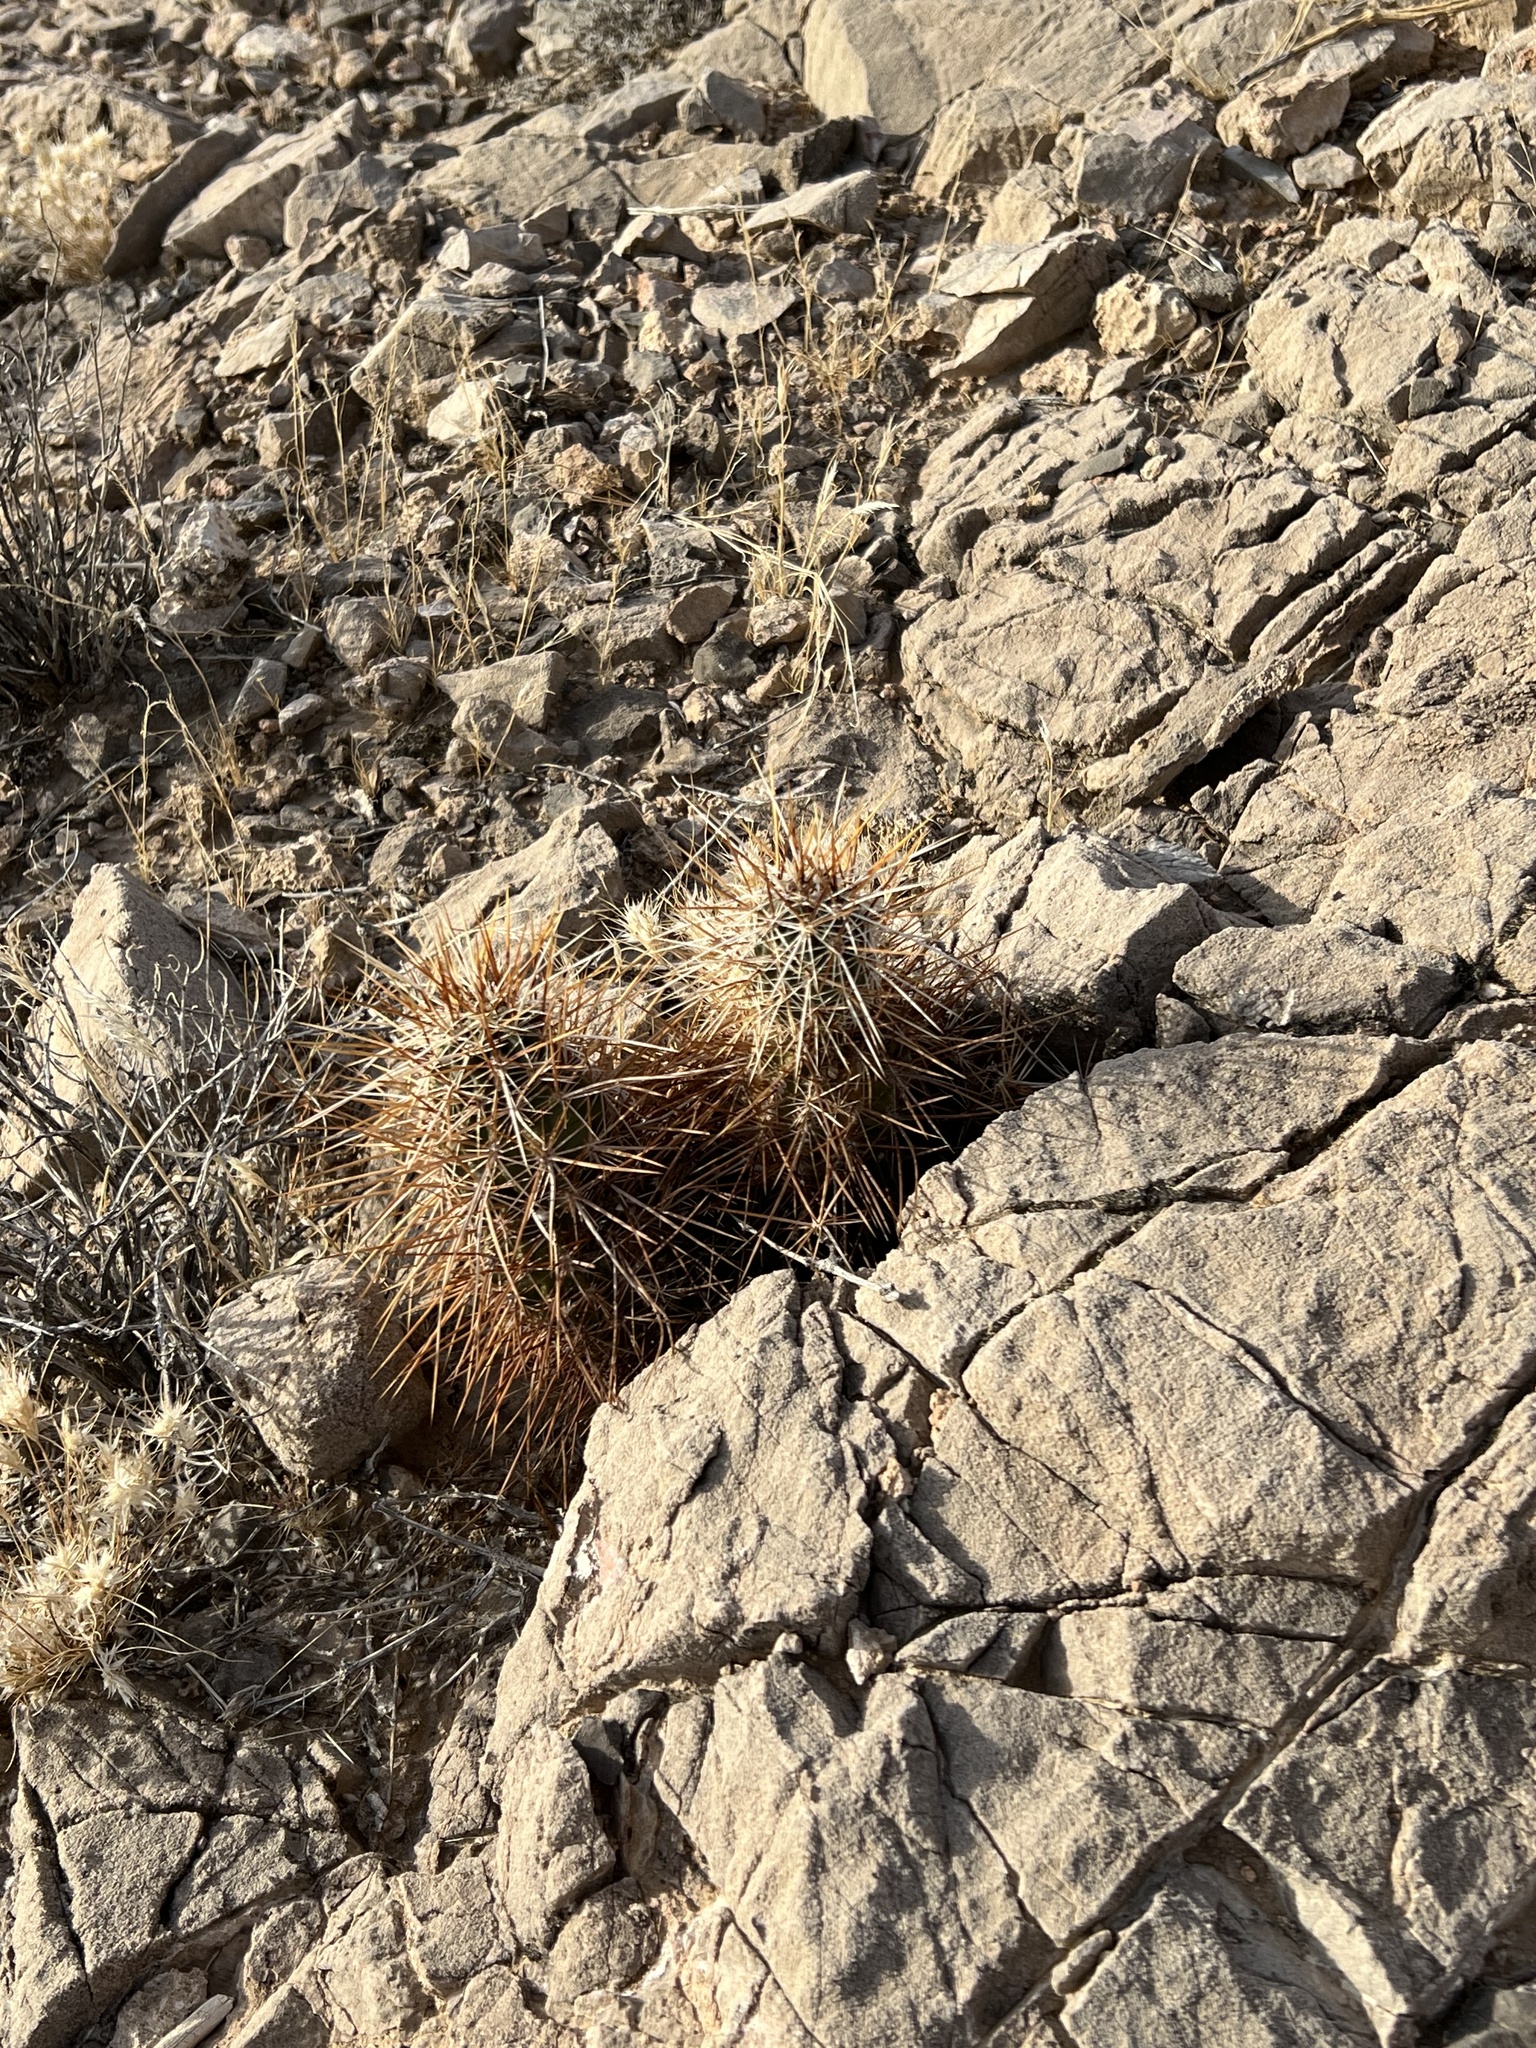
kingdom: Plantae
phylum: Tracheophyta
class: Magnoliopsida
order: Caryophyllales
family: Cactaceae
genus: Echinocereus
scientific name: Echinocereus engelmannii
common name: Engelmann's hedgehog cactus
